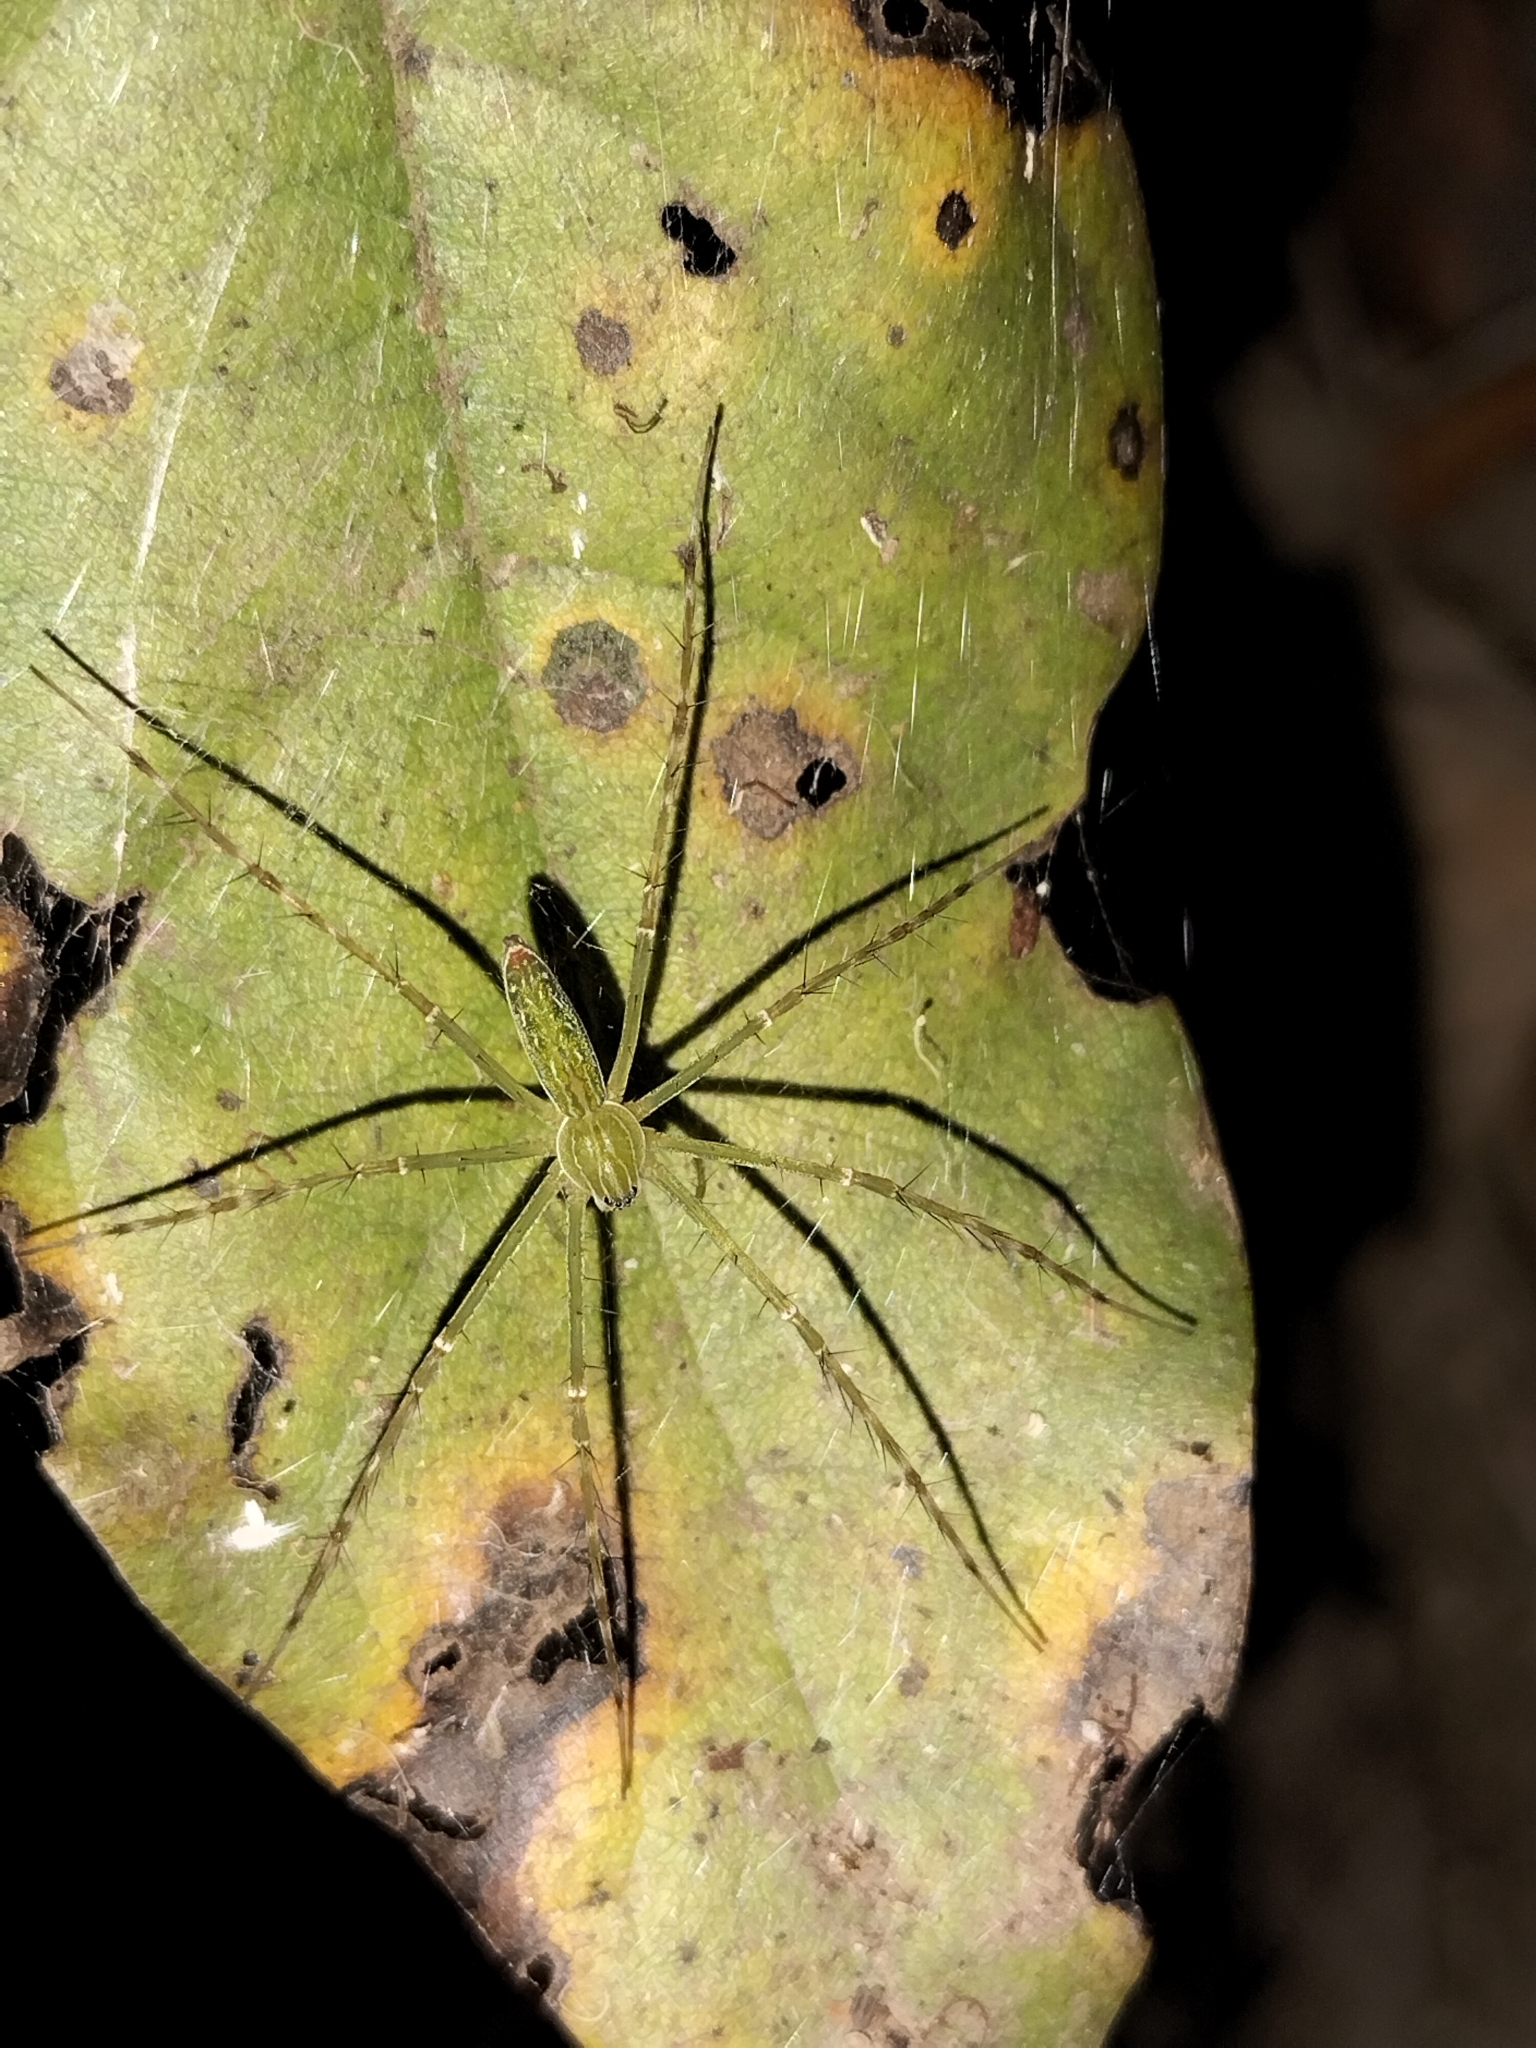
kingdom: Animalia
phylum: Arthropoda
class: Arachnida
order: Araneae
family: Pisauridae
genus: Hygropoda
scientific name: Hygropoda lineata
